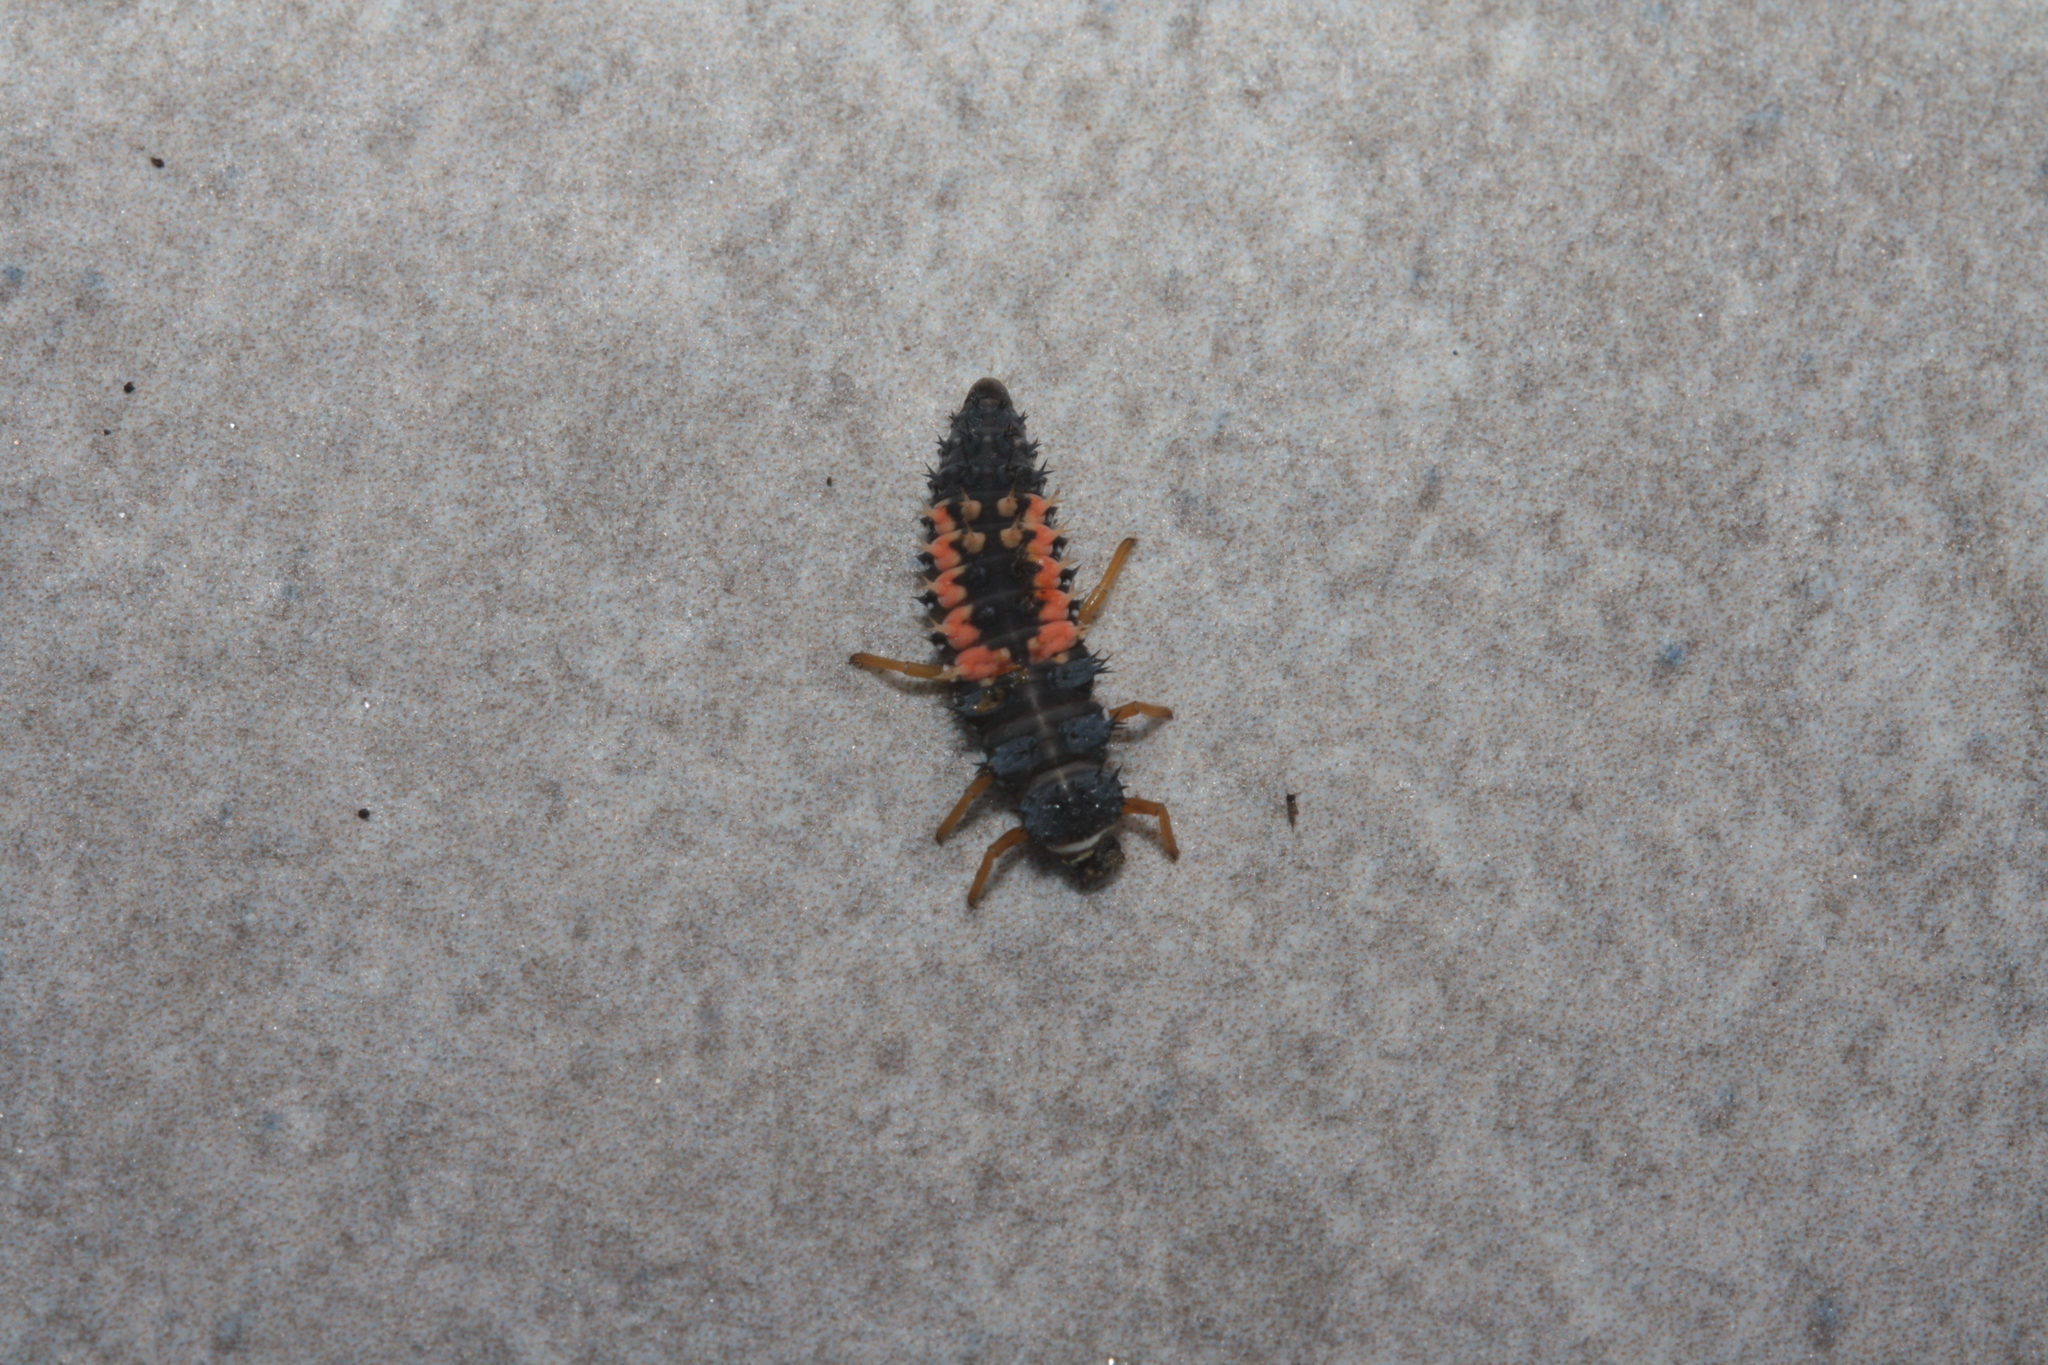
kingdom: Animalia
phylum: Arthropoda
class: Insecta
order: Coleoptera
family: Coccinellidae
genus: Harmonia
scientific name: Harmonia axyridis
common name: Harlequin ladybird
